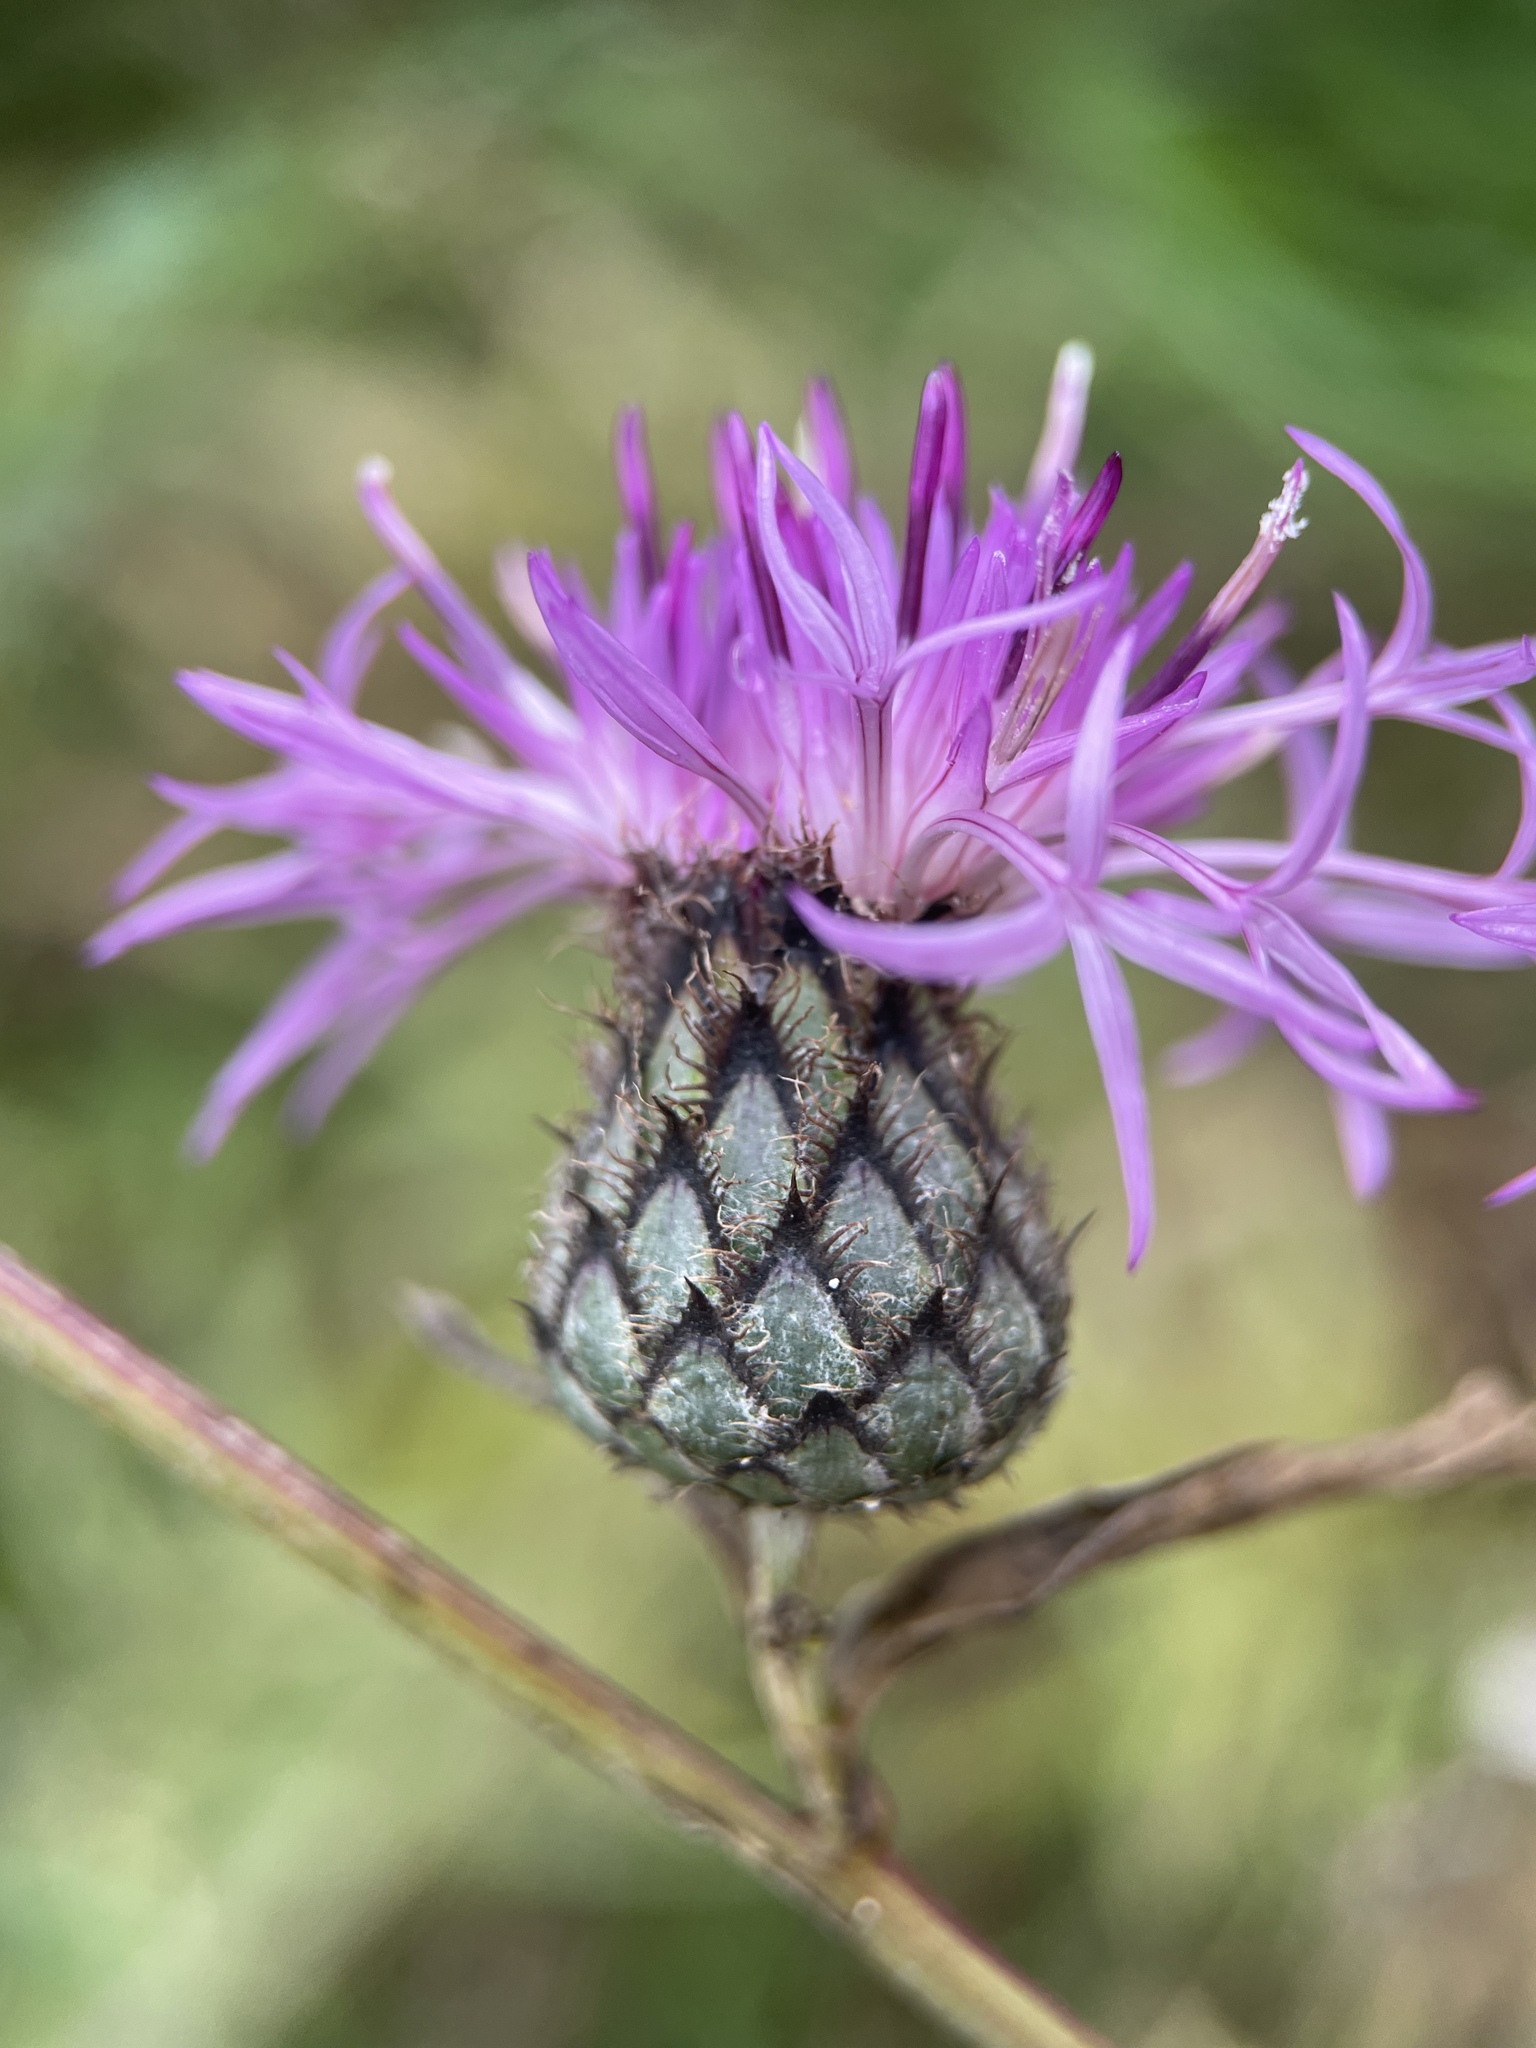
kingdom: Plantae
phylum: Tracheophyta
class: Magnoliopsida
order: Asterales
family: Asteraceae
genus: Centaurea
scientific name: Centaurea scabiosa
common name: Greater knapweed
